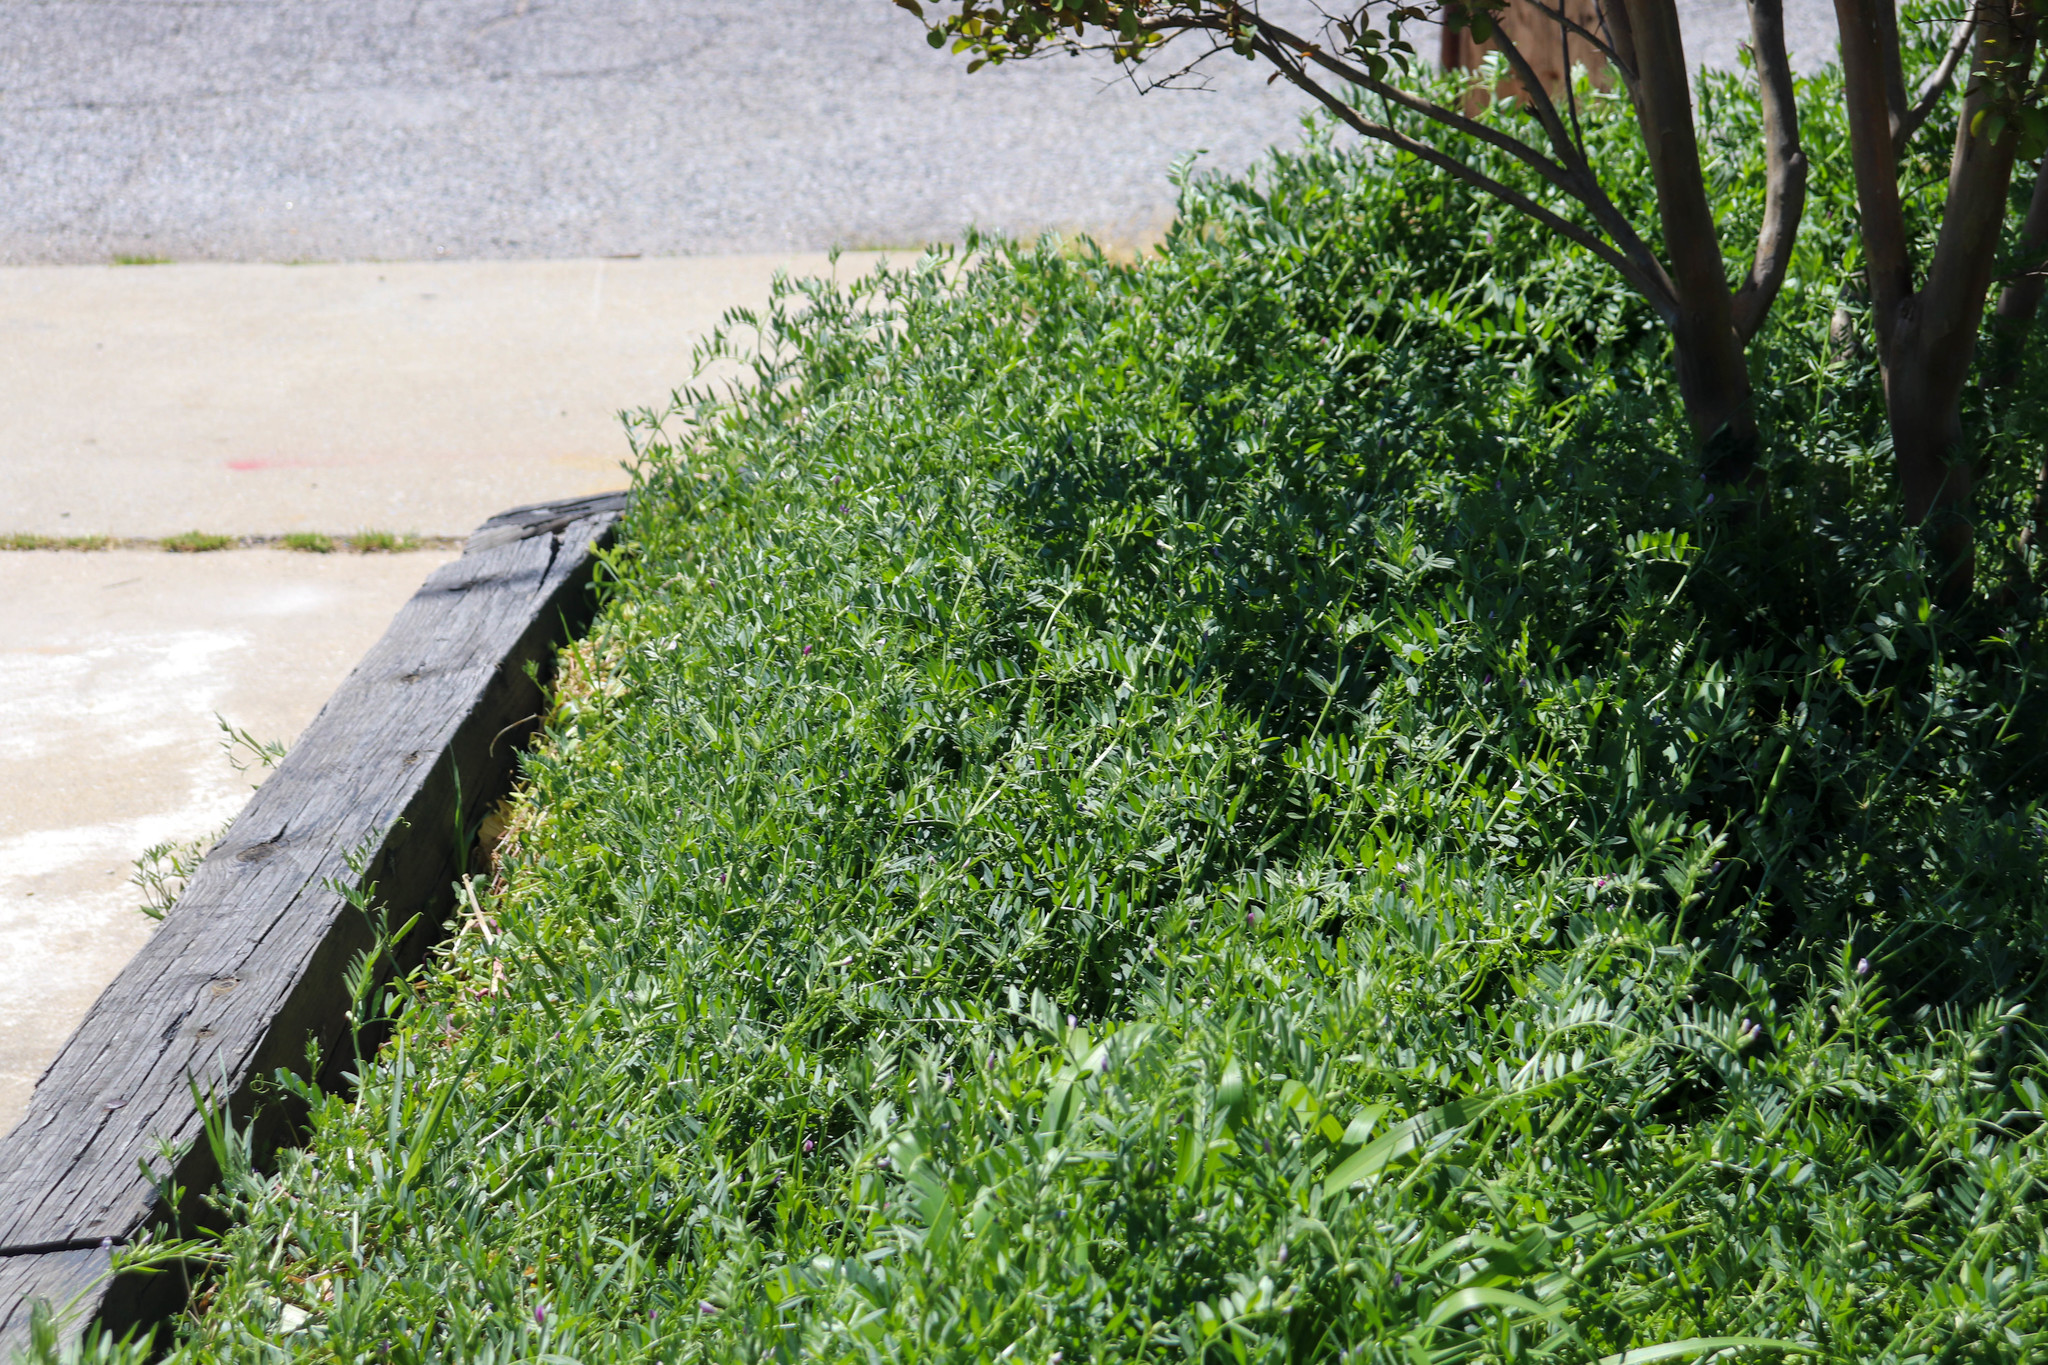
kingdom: Plantae
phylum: Tracheophyta
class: Magnoliopsida
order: Fabales
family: Fabaceae
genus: Vicia
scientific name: Vicia sativa
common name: Garden vetch
